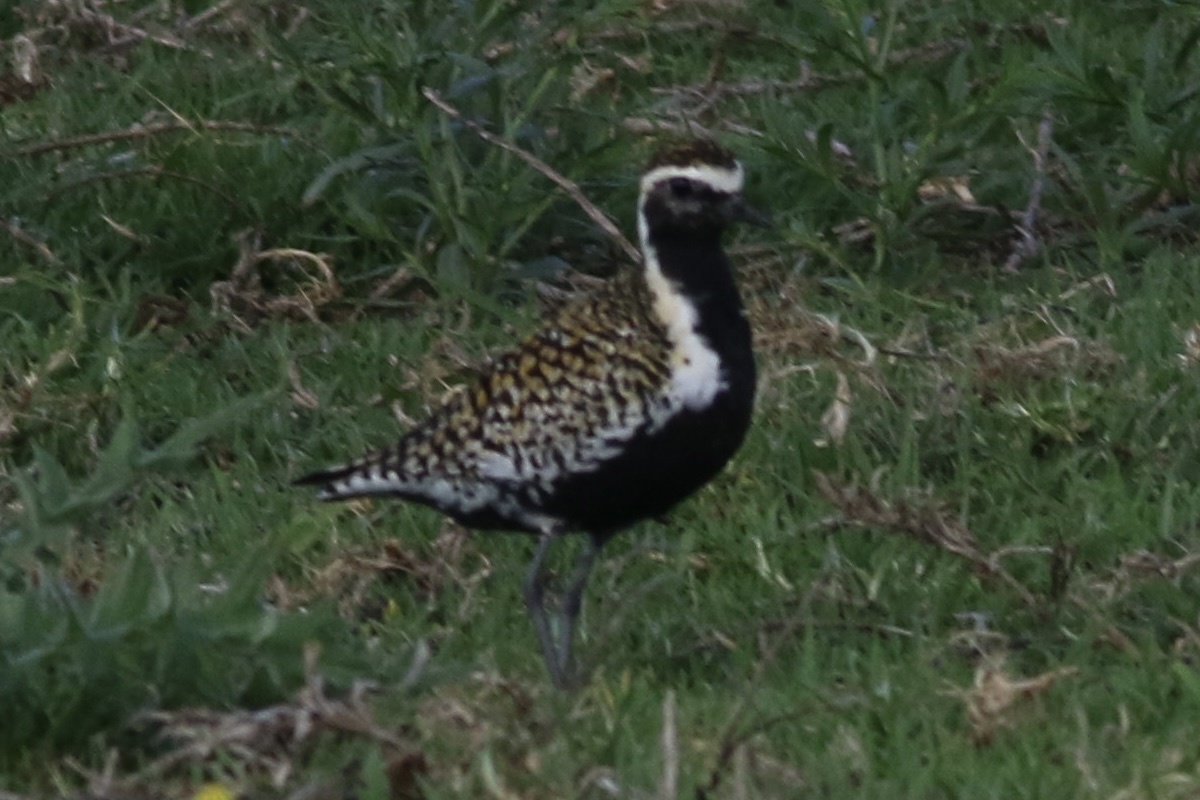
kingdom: Animalia
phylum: Chordata
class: Aves
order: Charadriiformes
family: Charadriidae
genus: Pluvialis
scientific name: Pluvialis fulva
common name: Pacific golden plover
